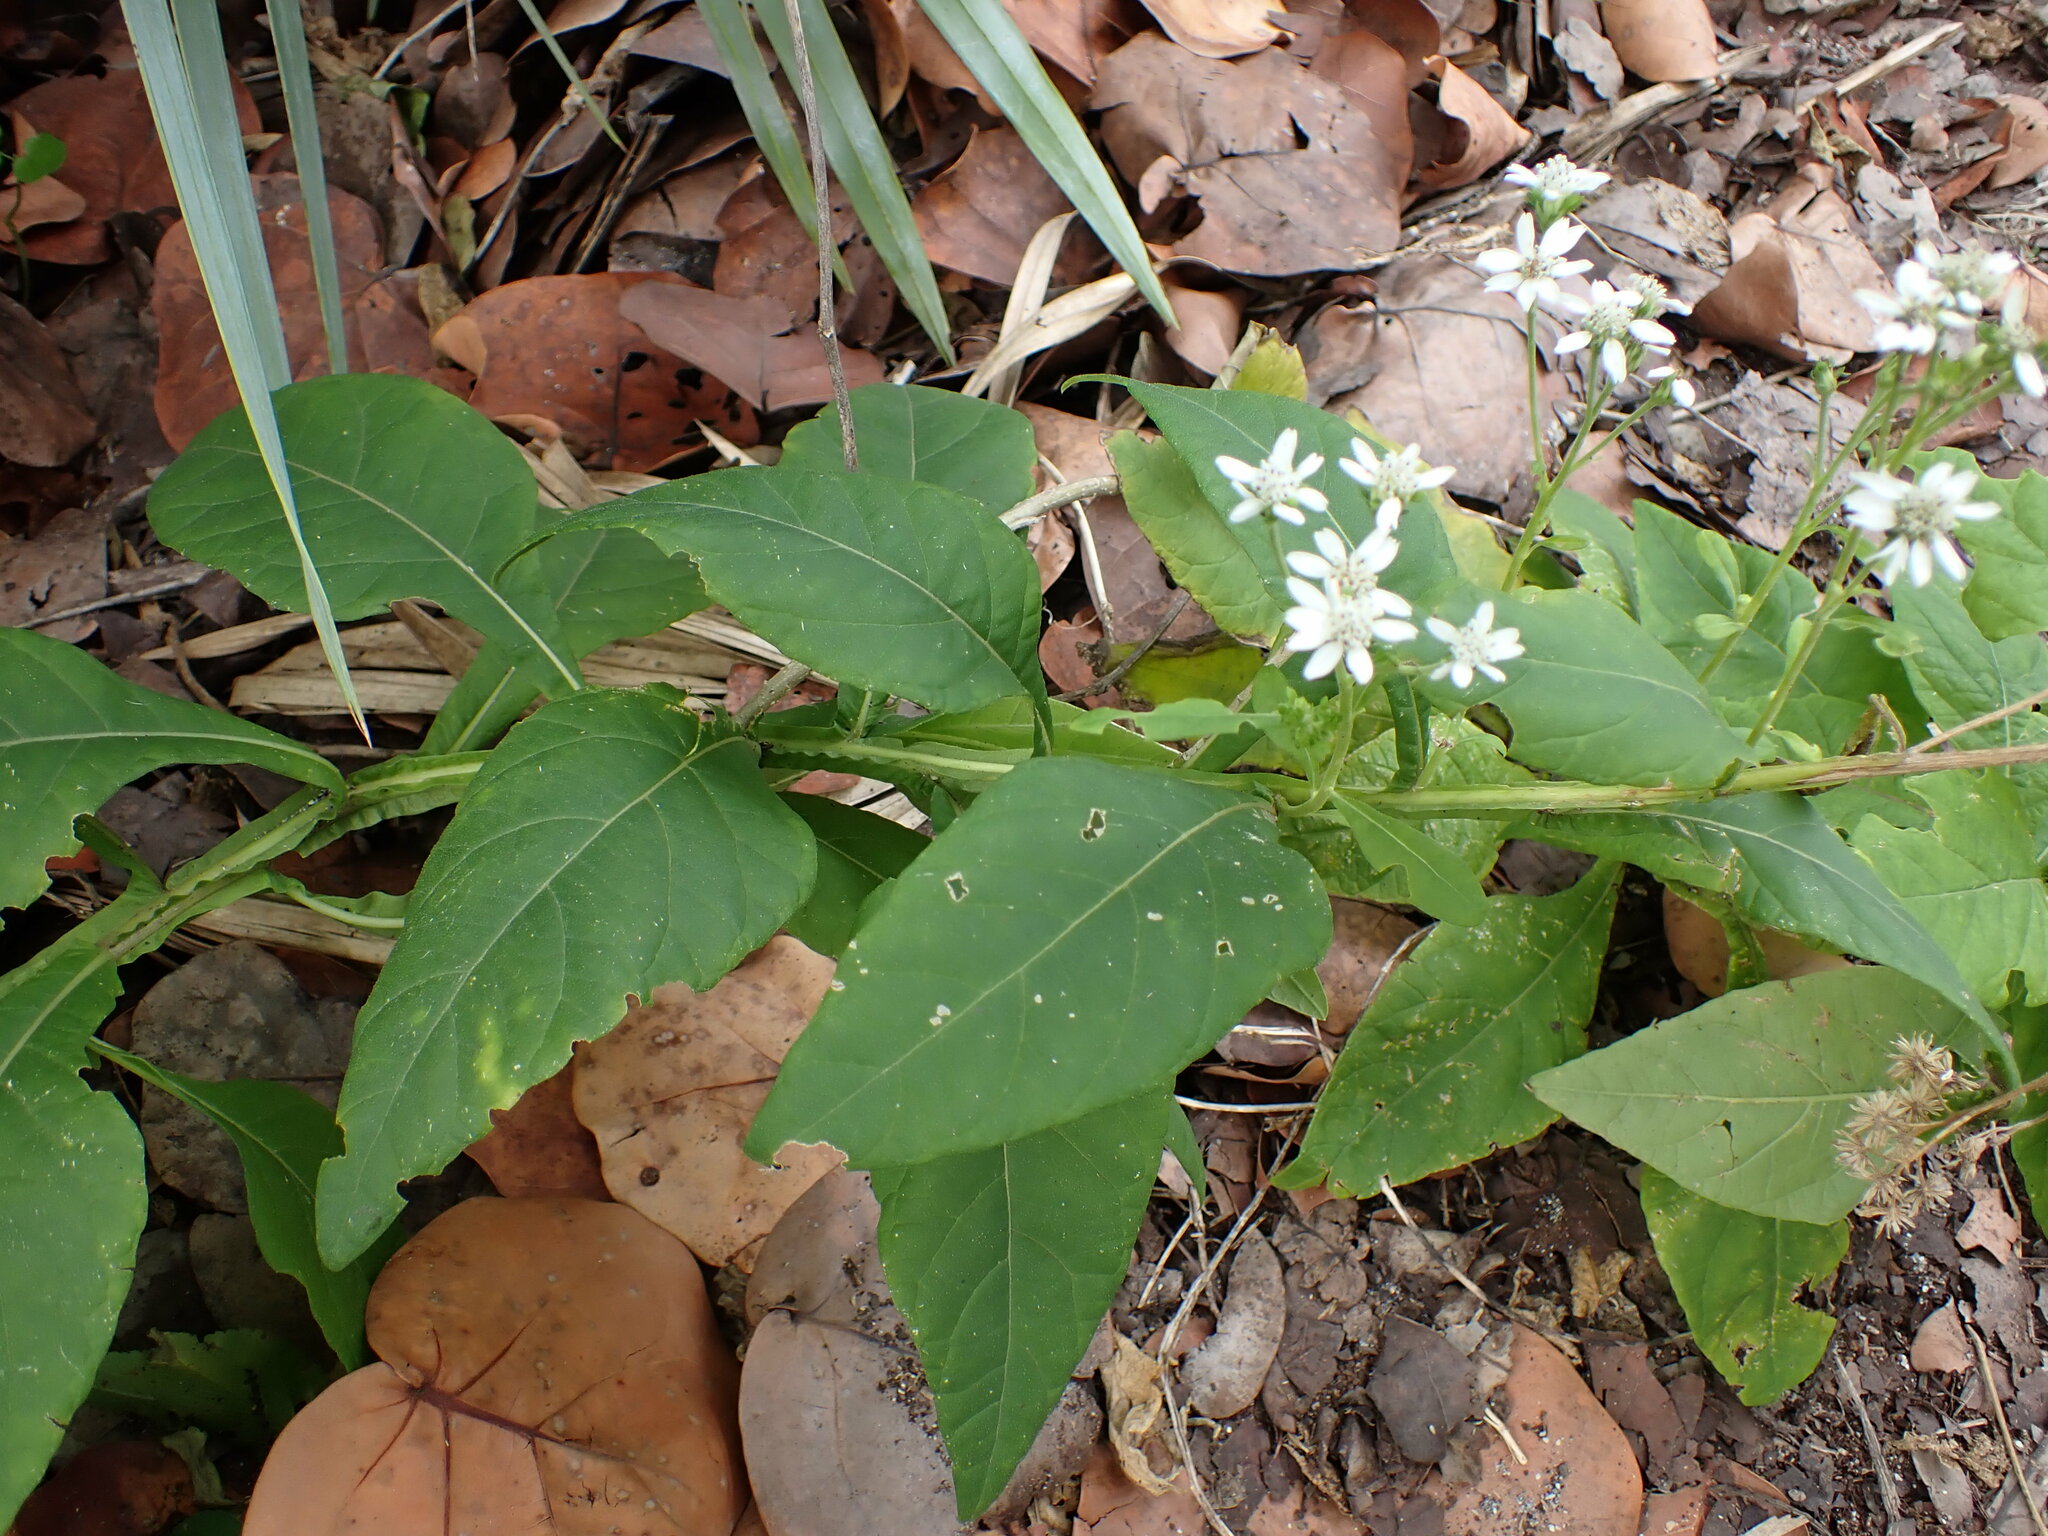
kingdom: Plantae
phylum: Tracheophyta
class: Magnoliopsida
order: Asterales
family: Asteraceae
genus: Verbesina
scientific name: Verbesina virginica
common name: Frostweed
